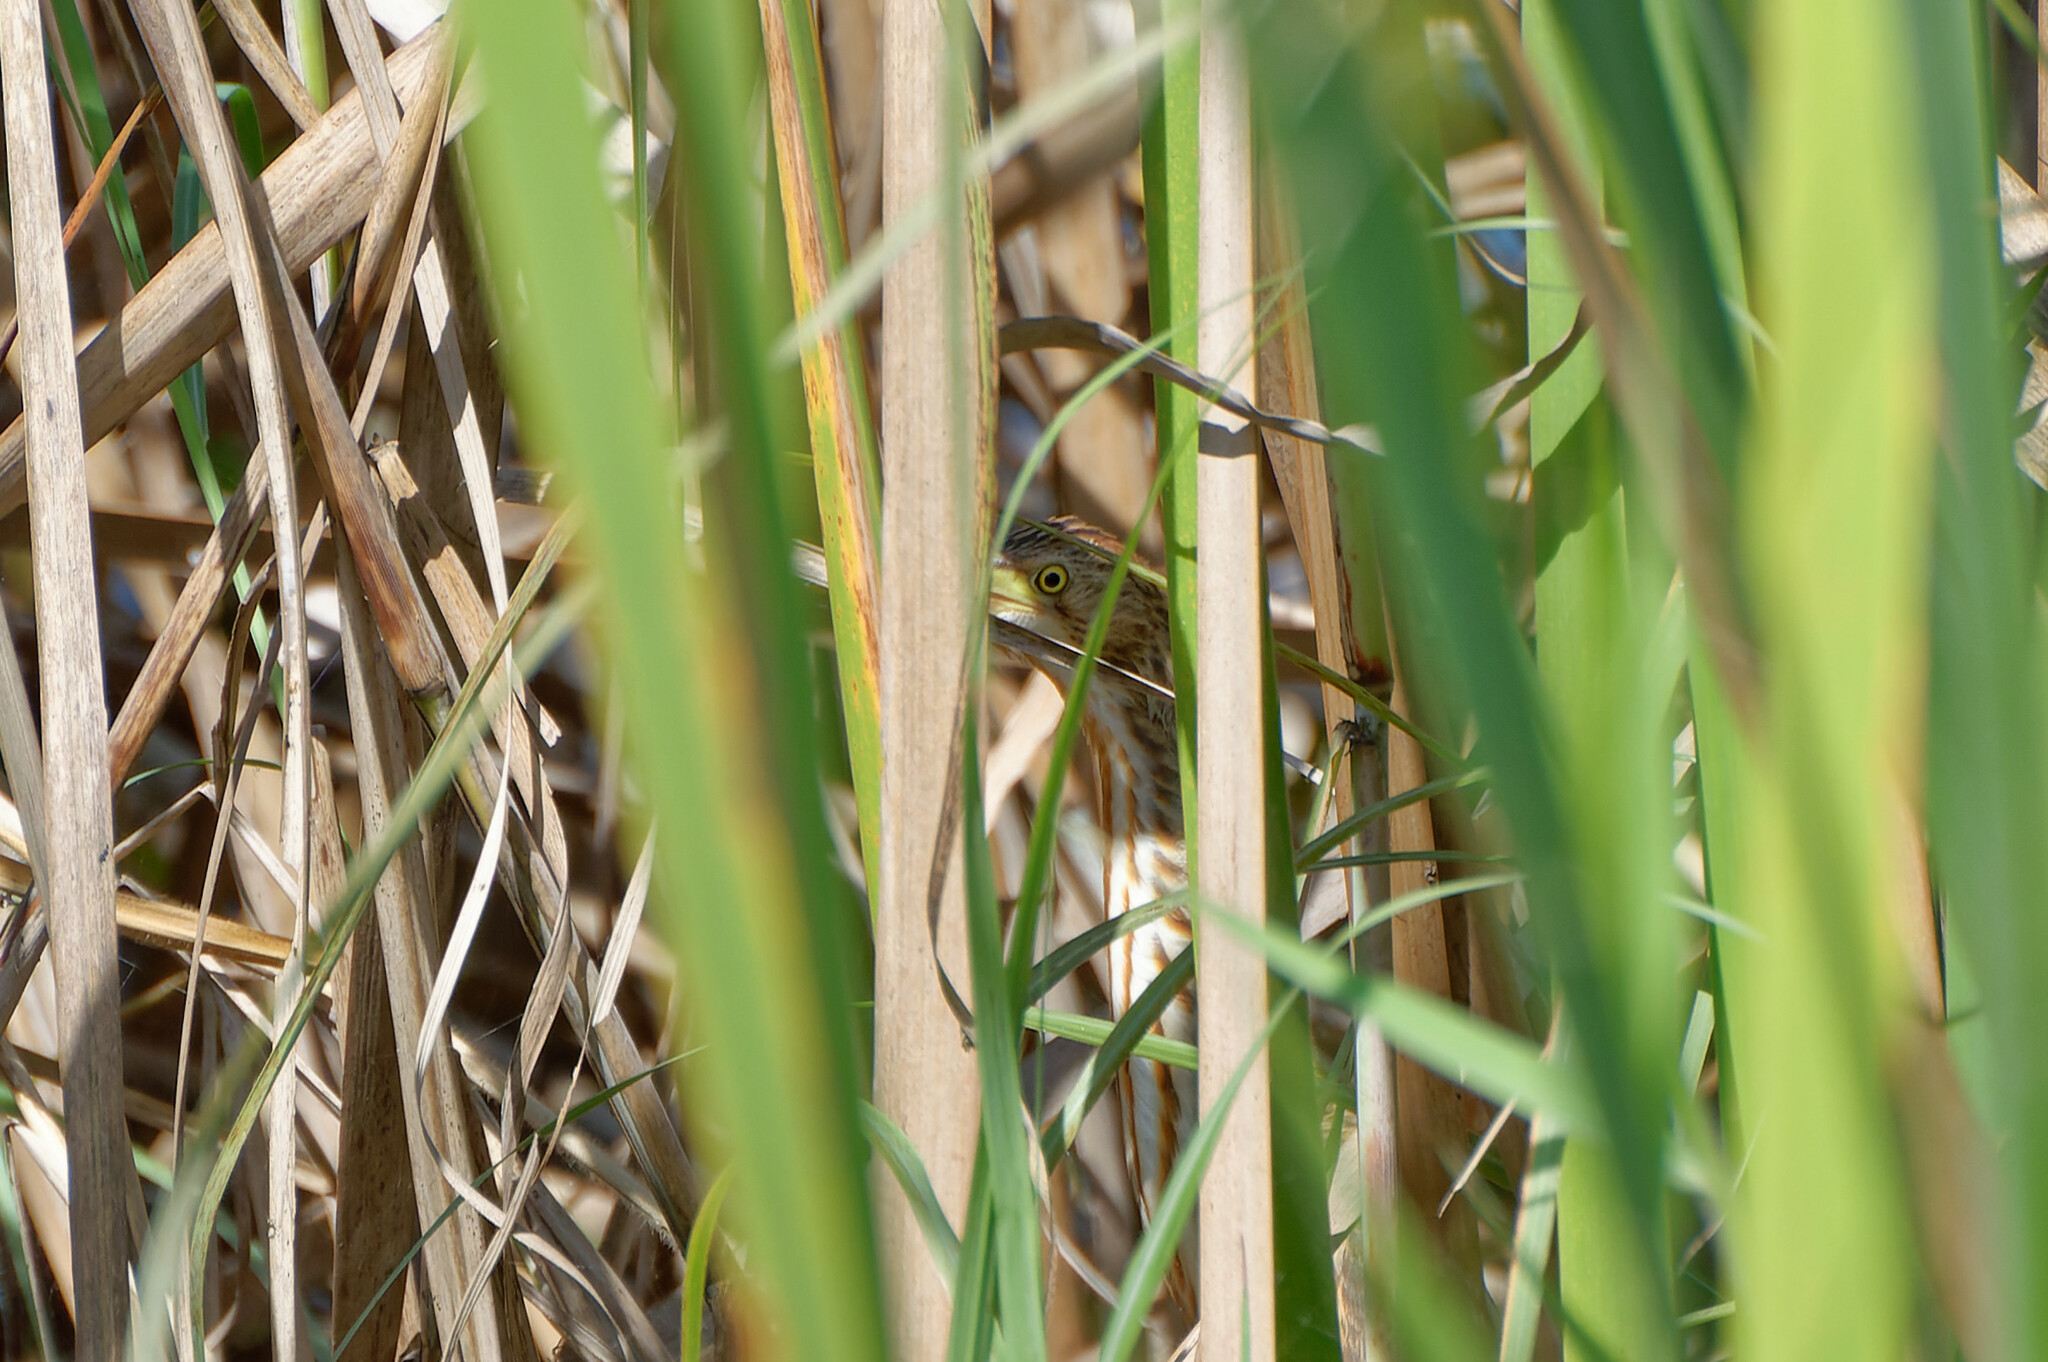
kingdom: Animalia
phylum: Chordata
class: Aves
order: Pelecaniformes
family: Ardeidae
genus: Ixobrychus
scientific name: Ixobrychus sinensis
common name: Yellow bittern
